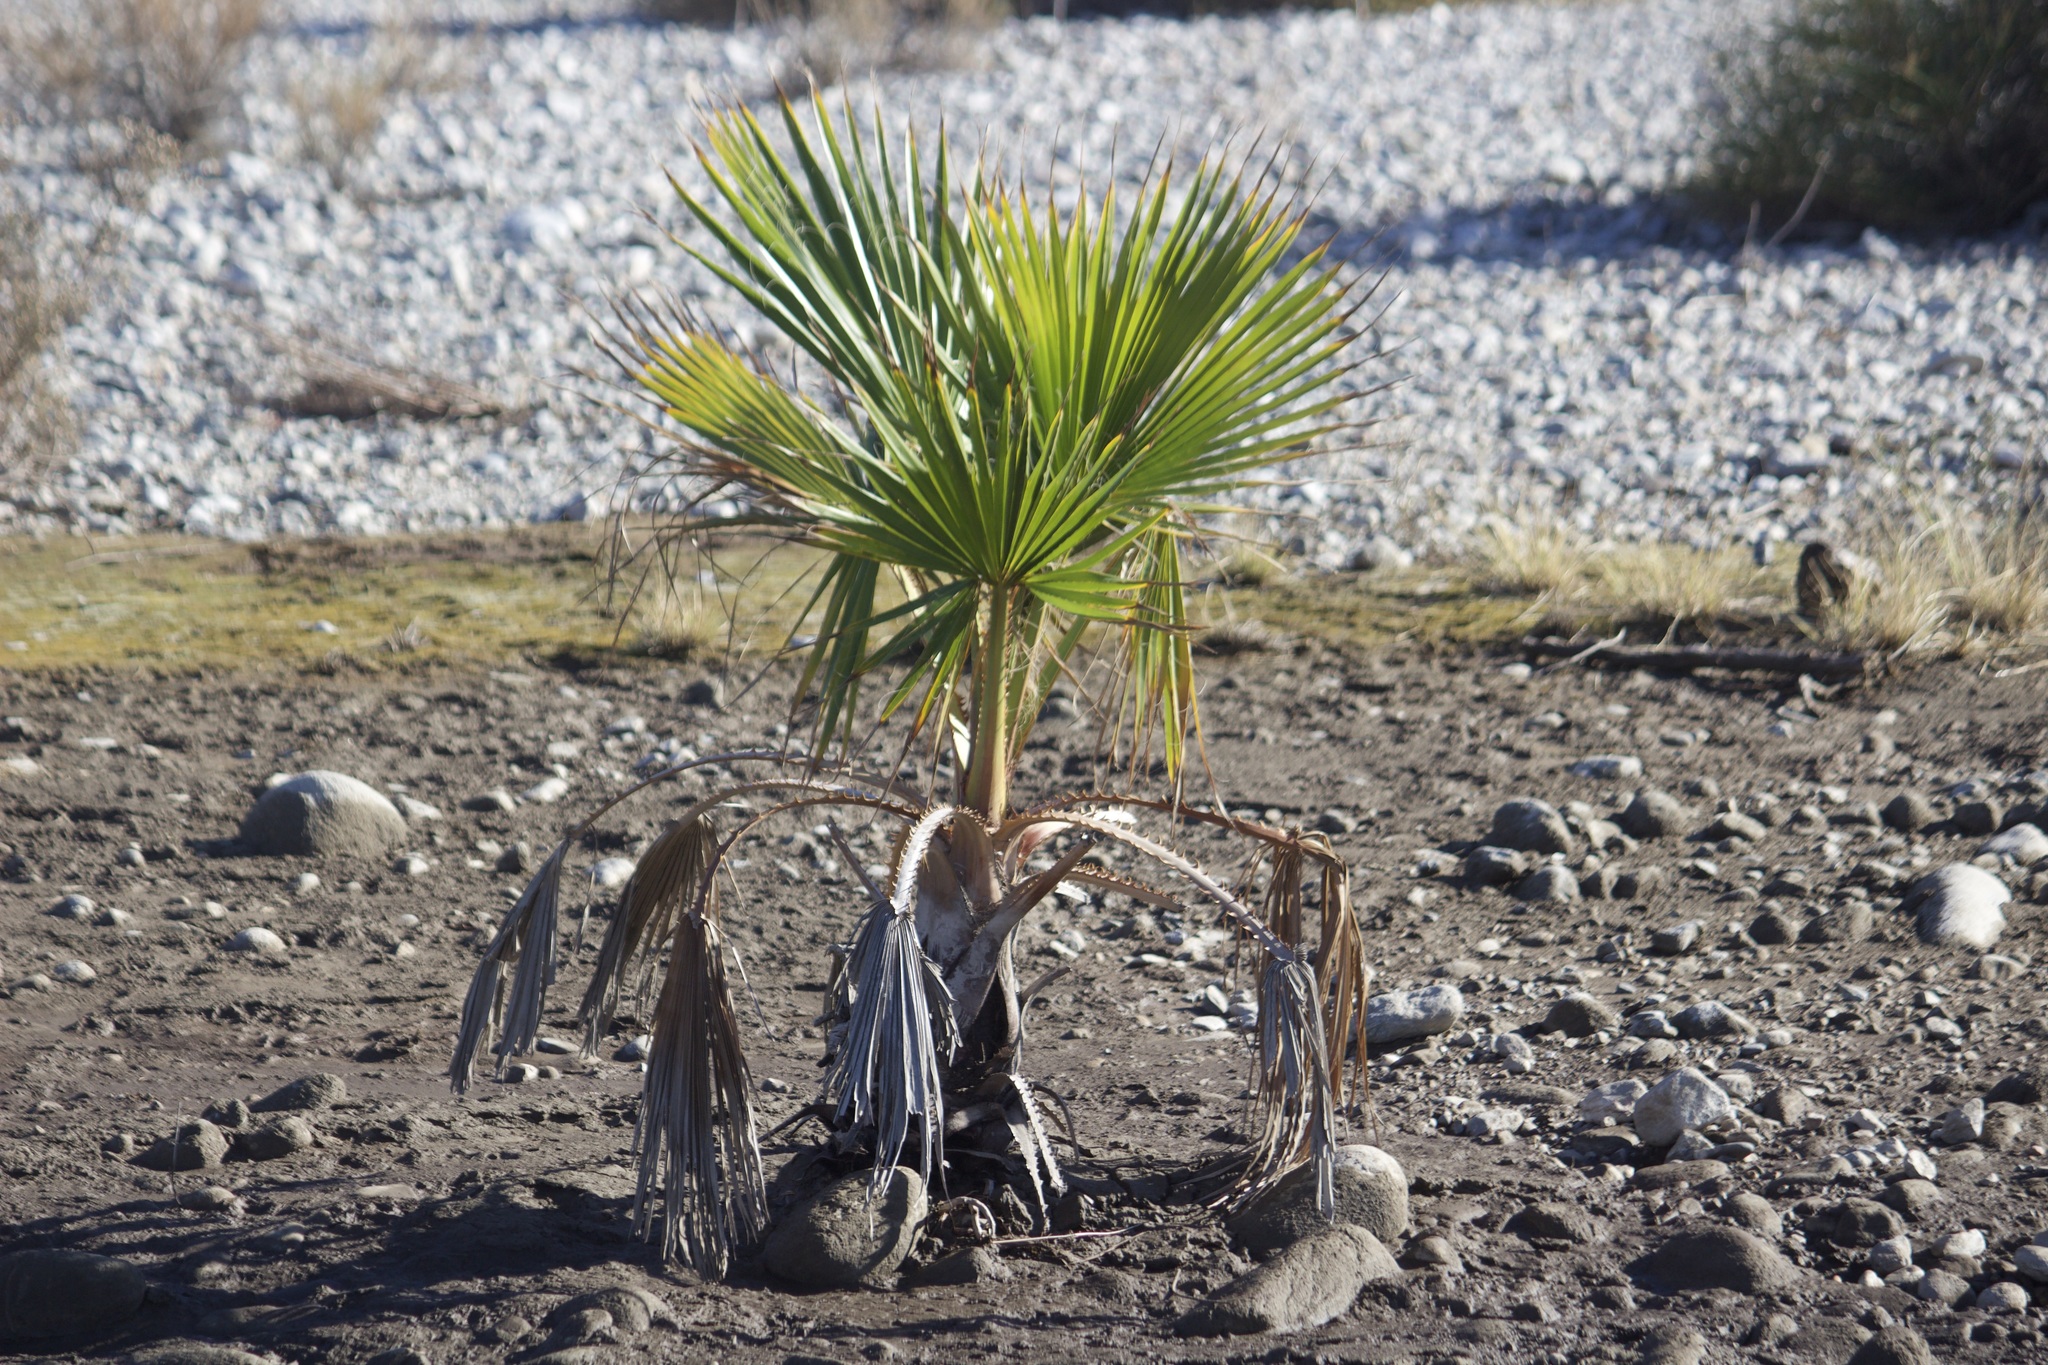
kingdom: Plantae
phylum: Tracheophyta
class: Liliopsida
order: Arecales
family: Arecaceae
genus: Washingtonia
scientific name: Washingtonia robusta
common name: Mexican fan palm
